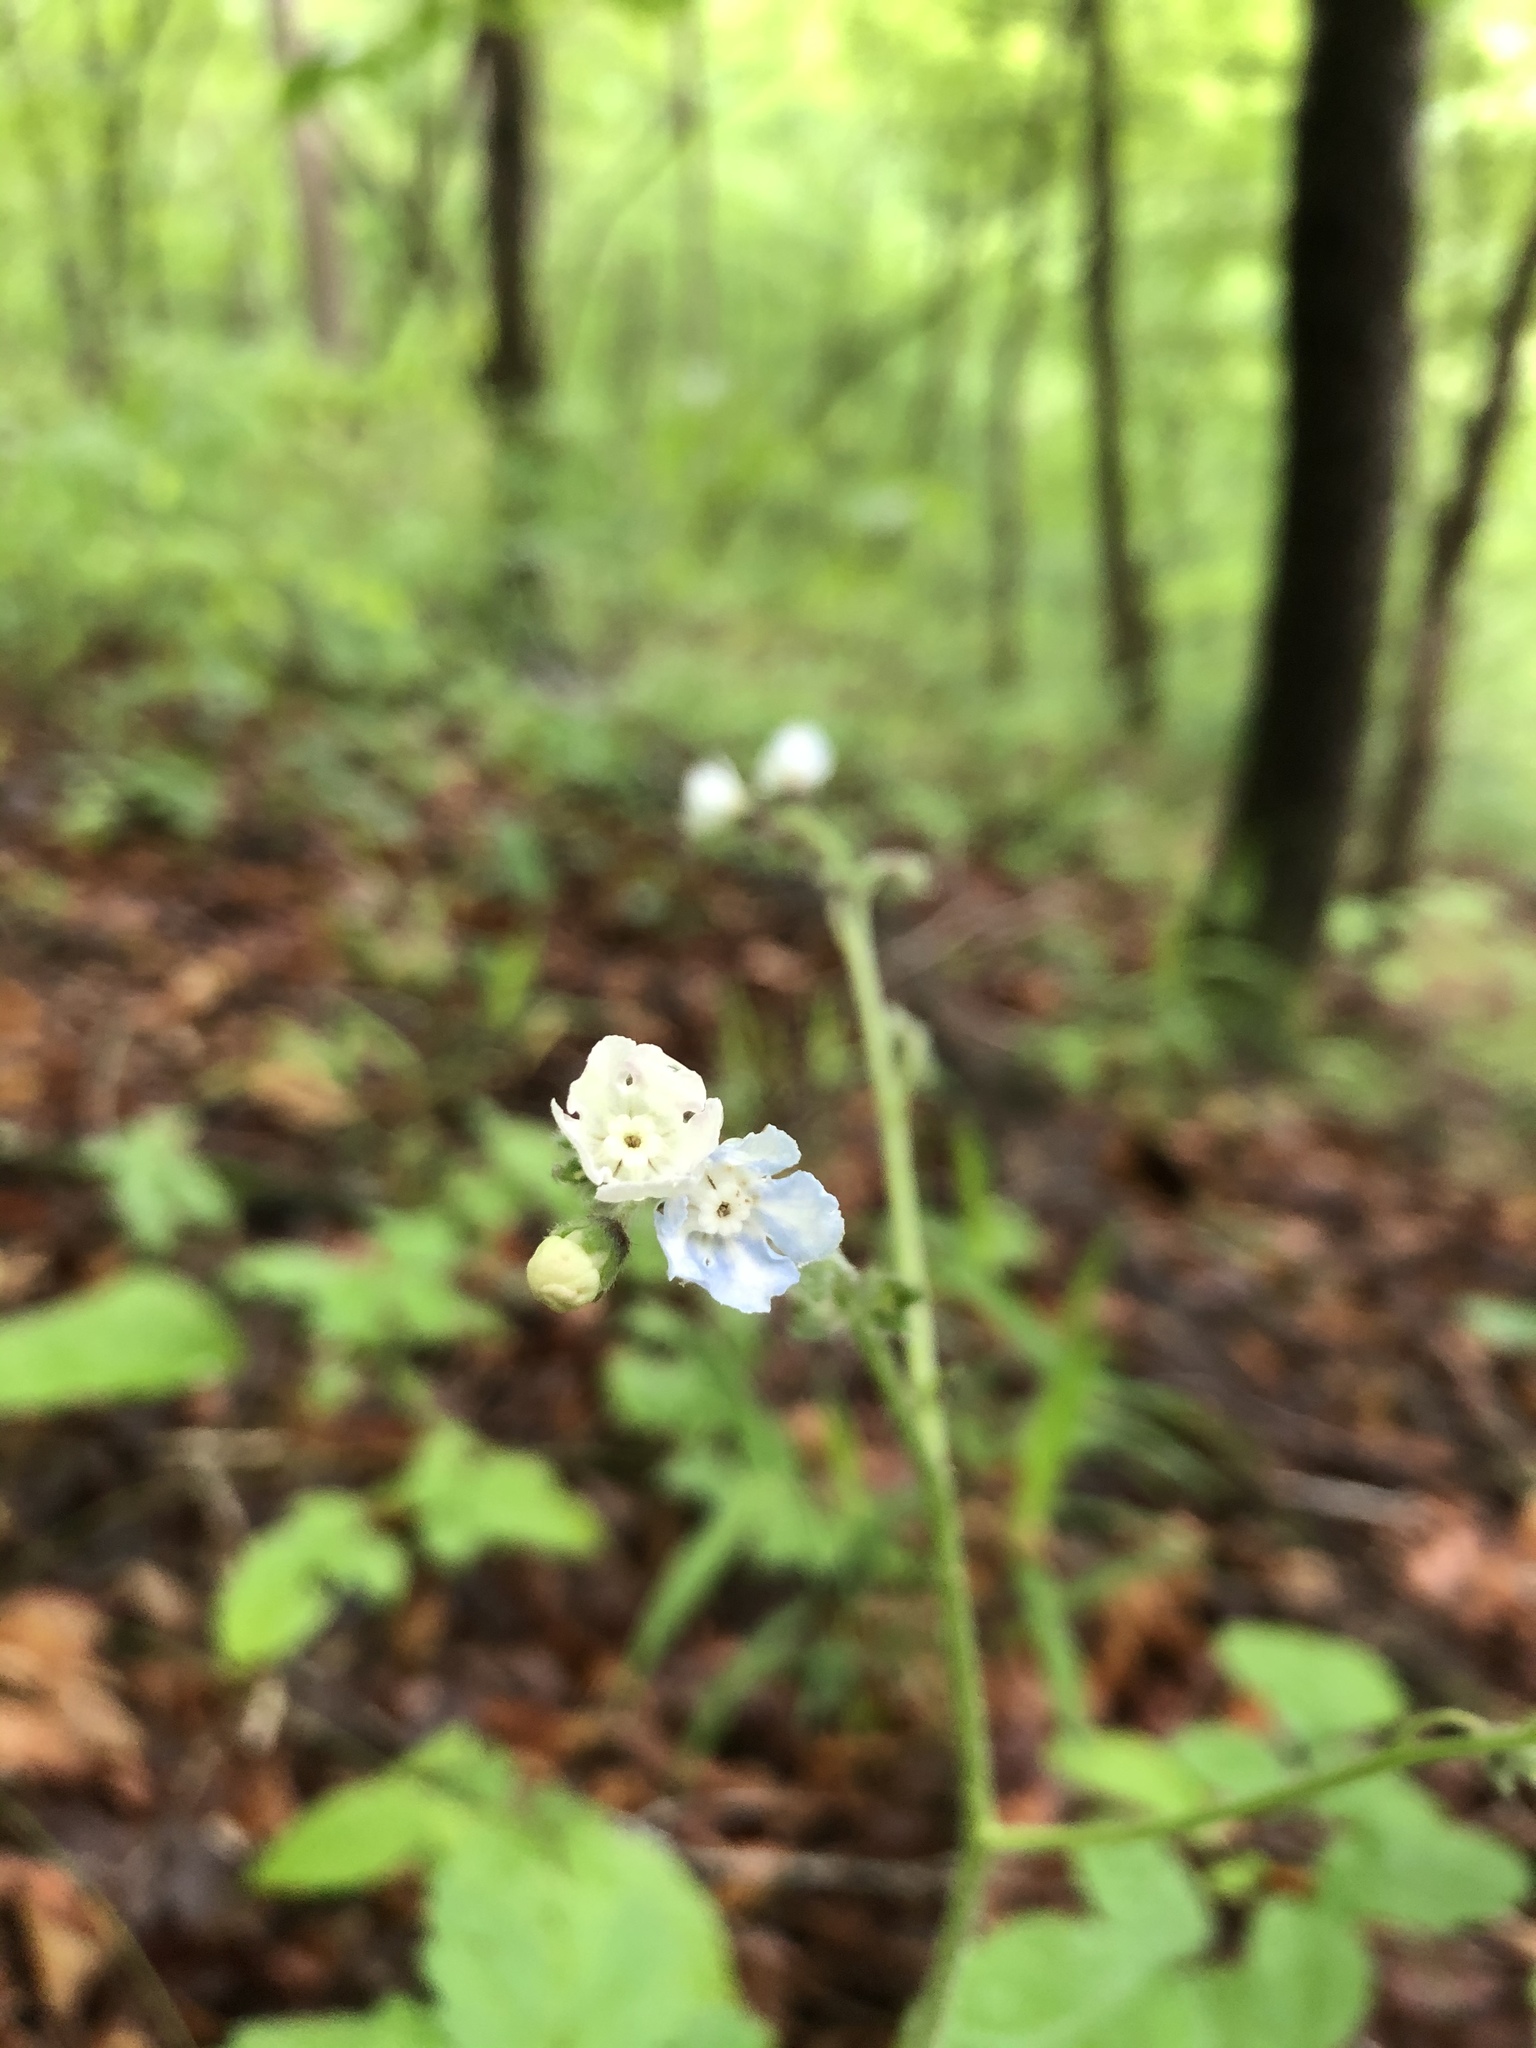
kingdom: Plantae
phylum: Tracheophyta
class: Magnoliopsida
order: Boraginales
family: Boraginaceae
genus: Andersonglossum
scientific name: Andersonglossum virginianum
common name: Wild comfrey
